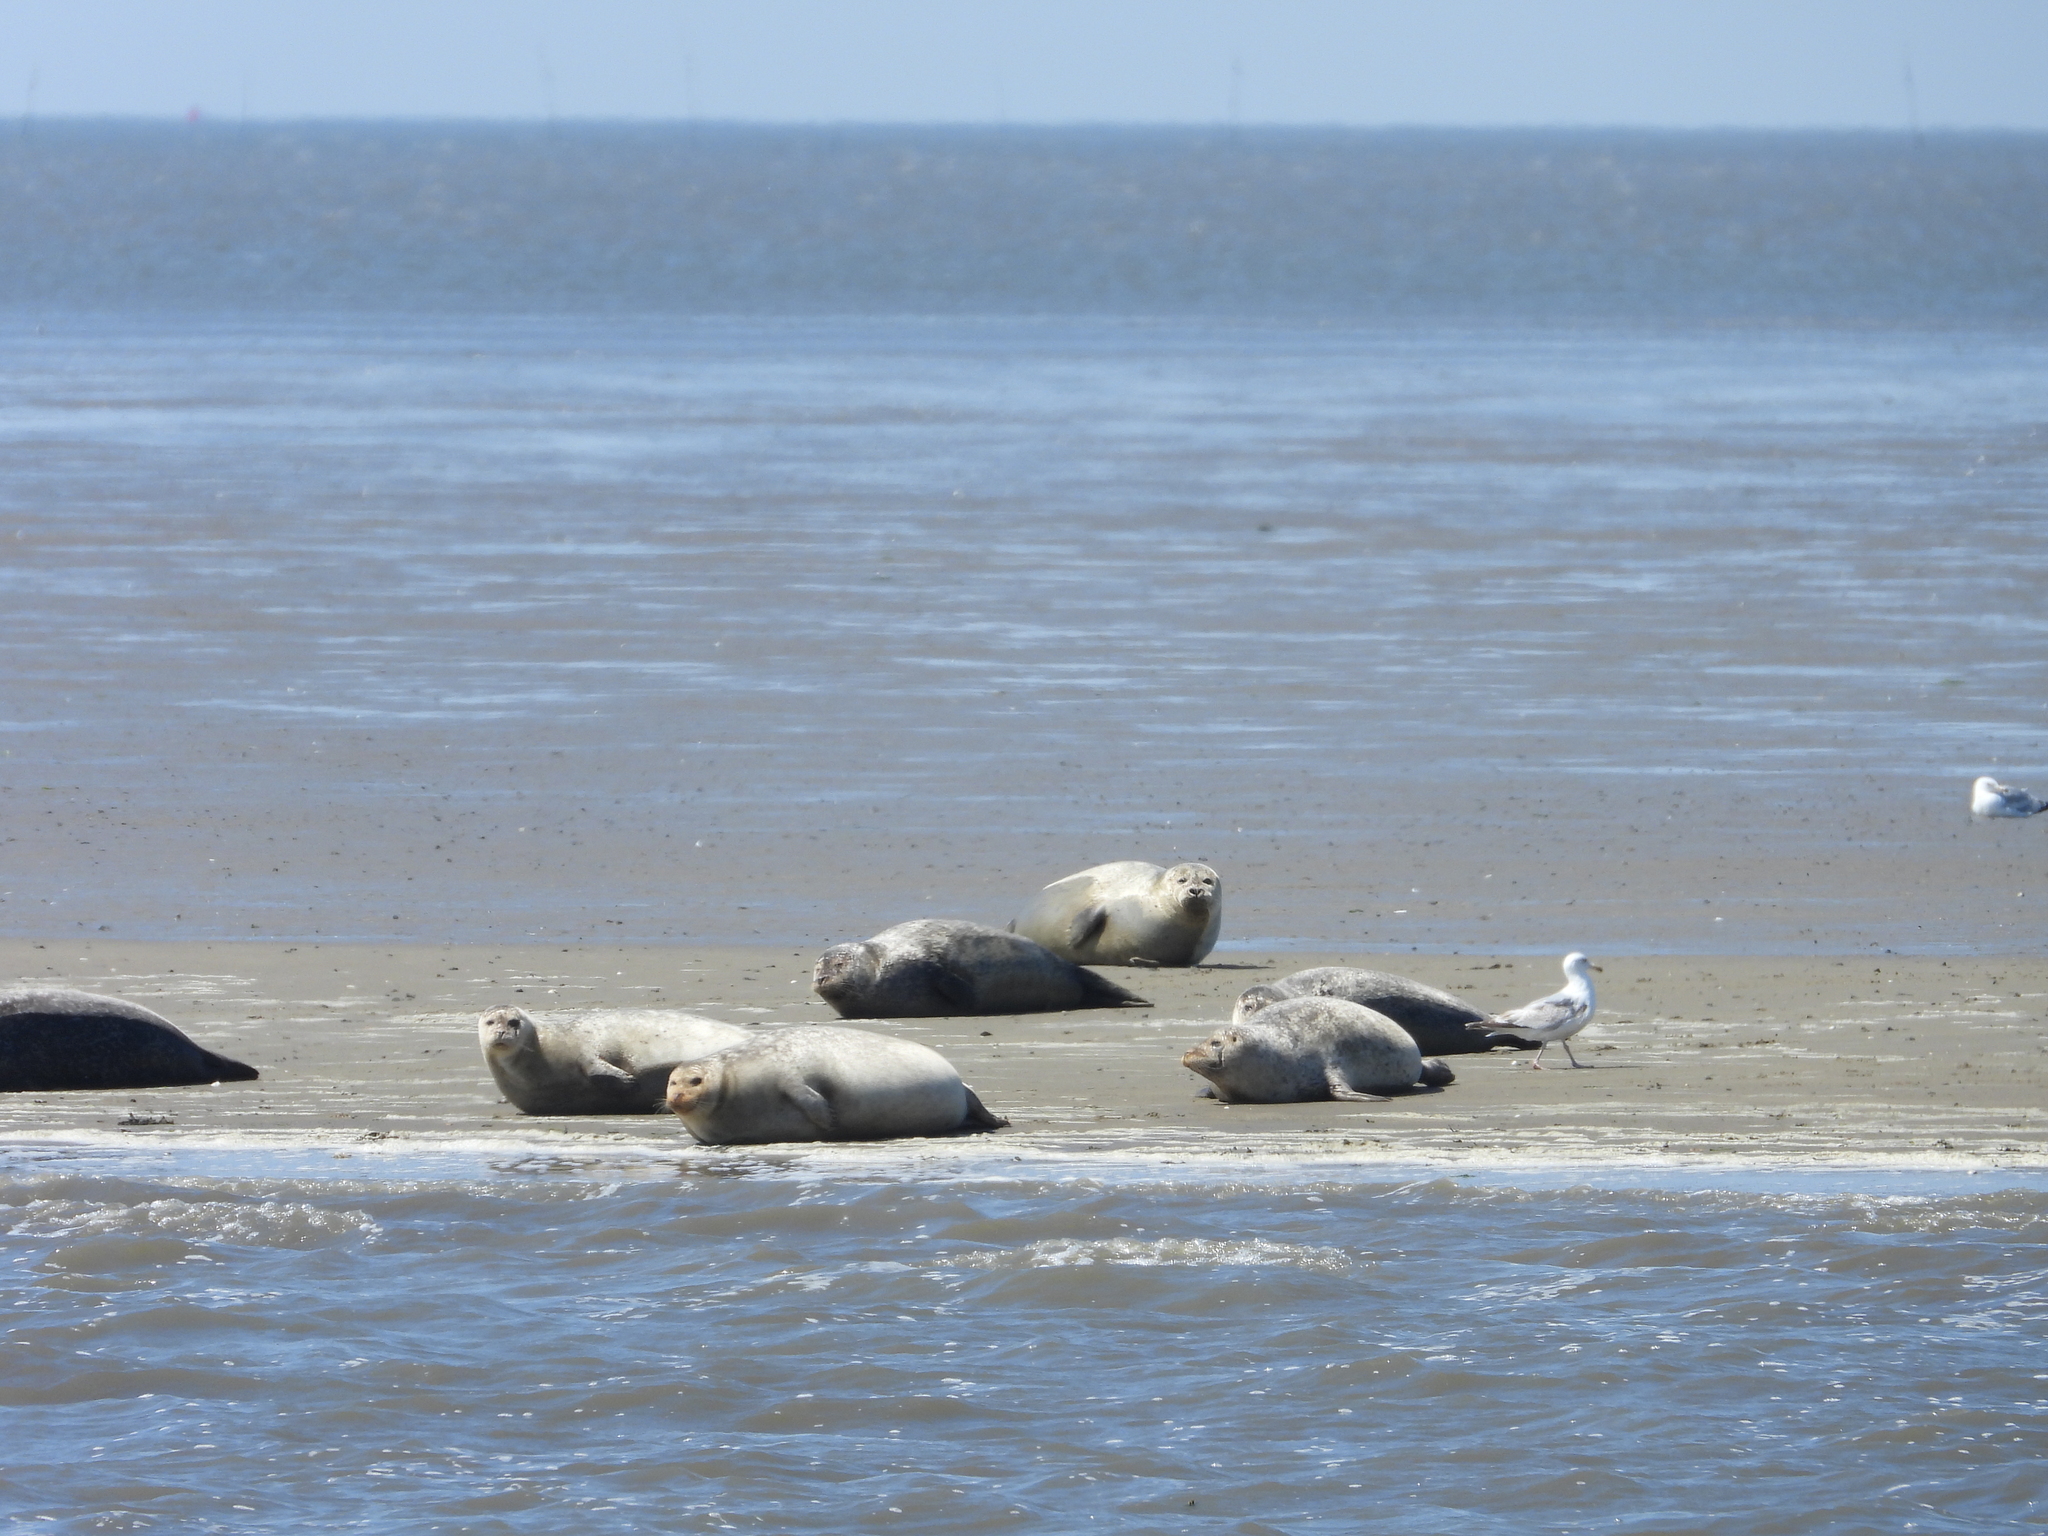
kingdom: Animalia
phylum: Chordata
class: Mammalia
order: Carnivora
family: Phocidae
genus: Phoca
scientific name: Phoca vitulina
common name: Harbor seal
